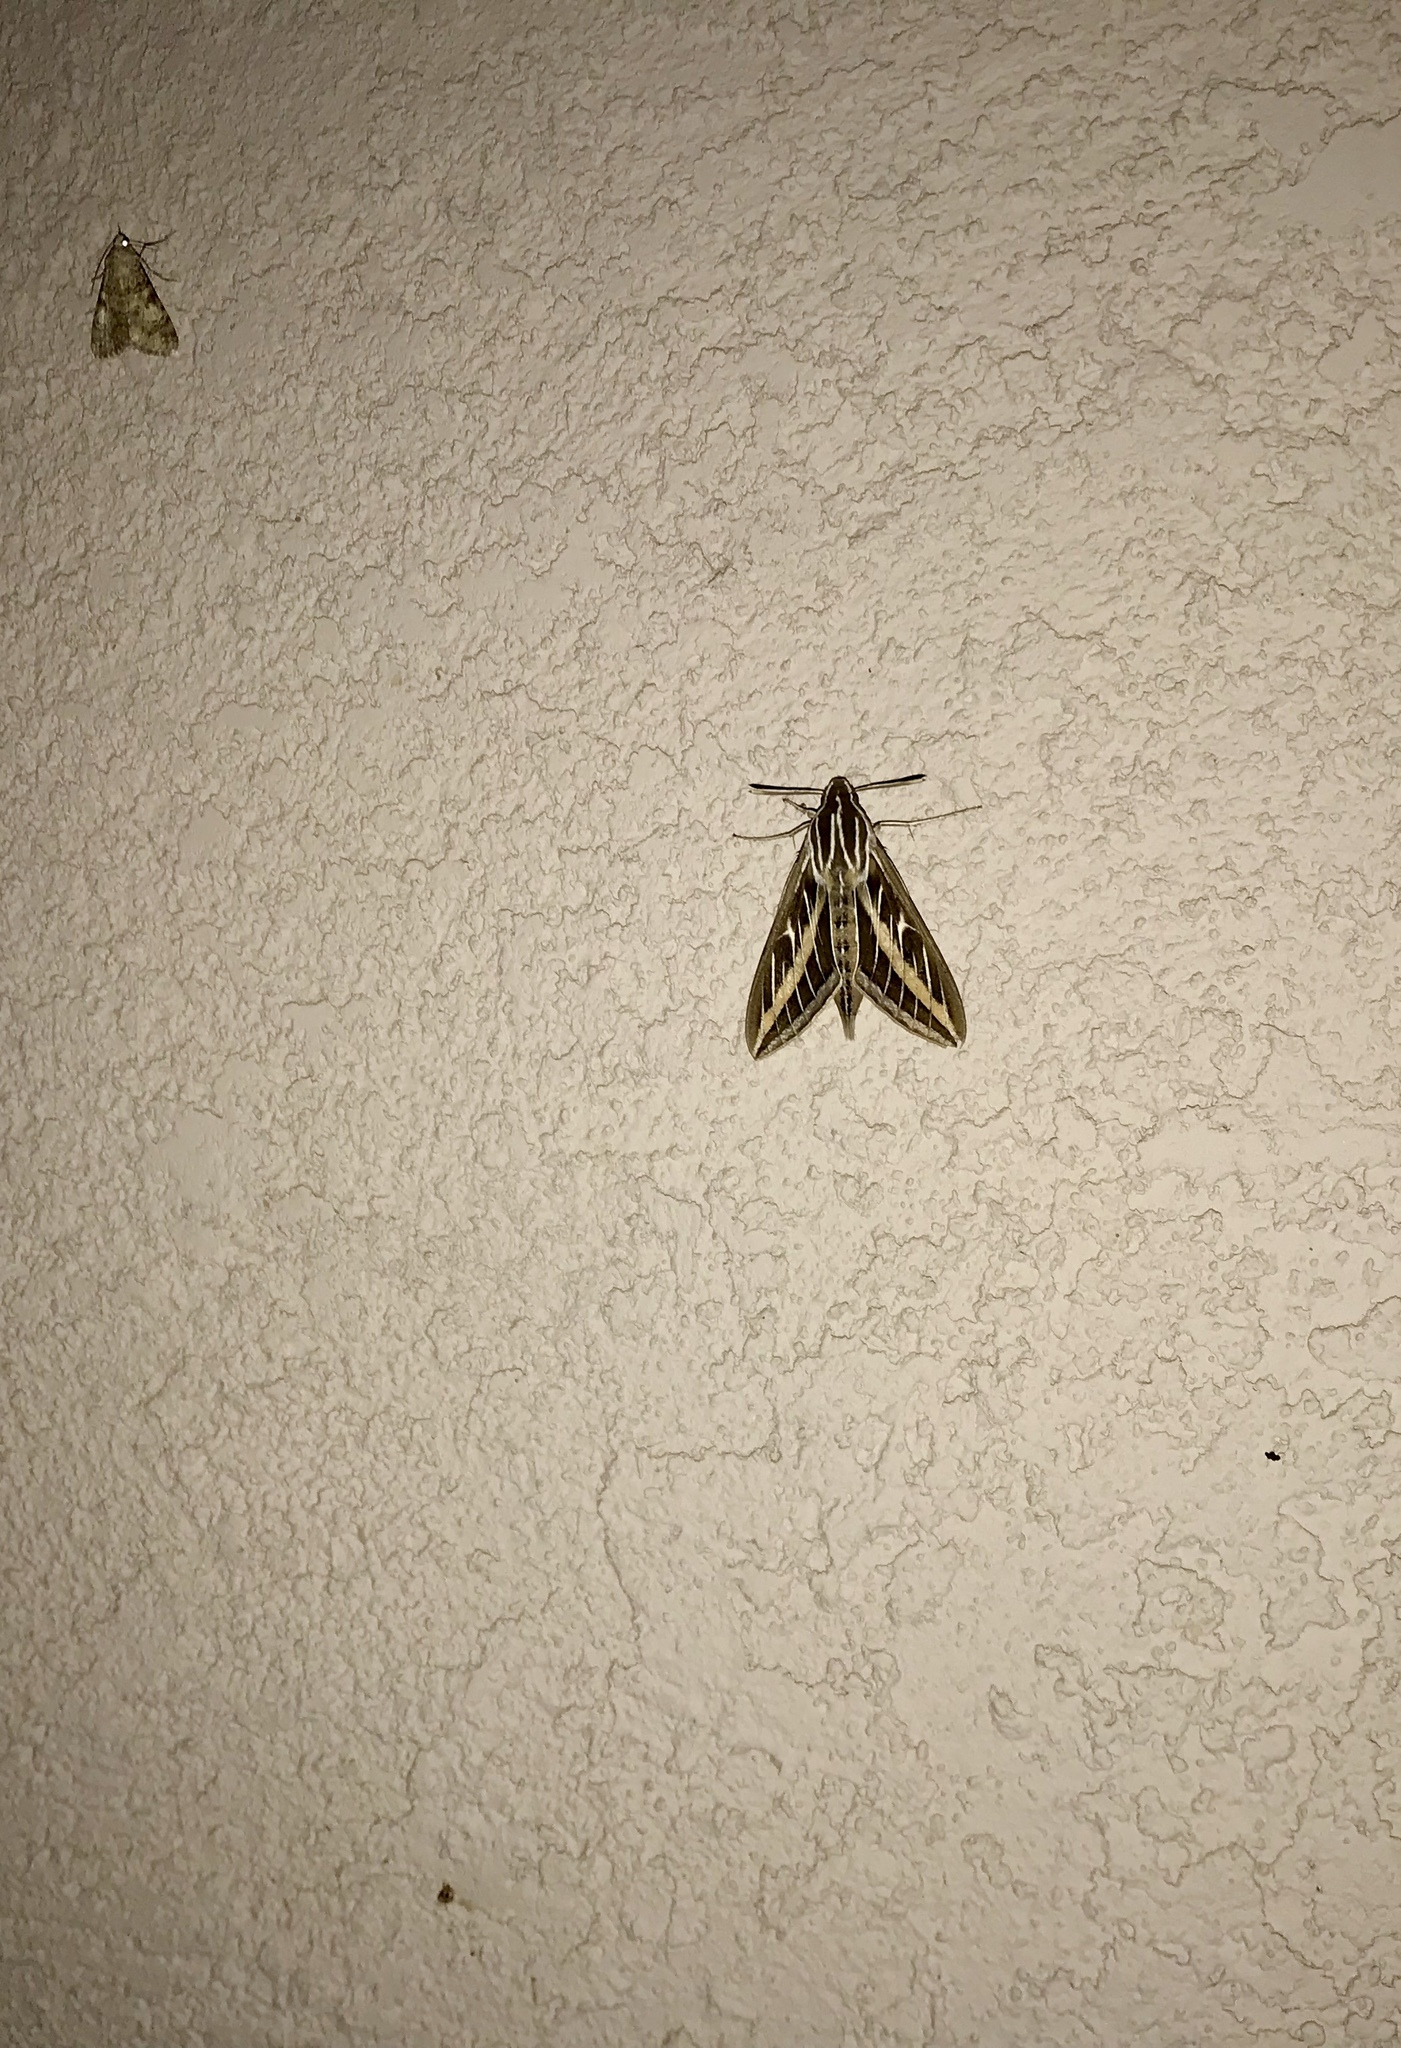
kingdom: Animalia
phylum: Arthropoda
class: Insecta
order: Lepidoptera
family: Sphingidae
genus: Hyles
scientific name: Hyles lineata
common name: White-lined sphinx
